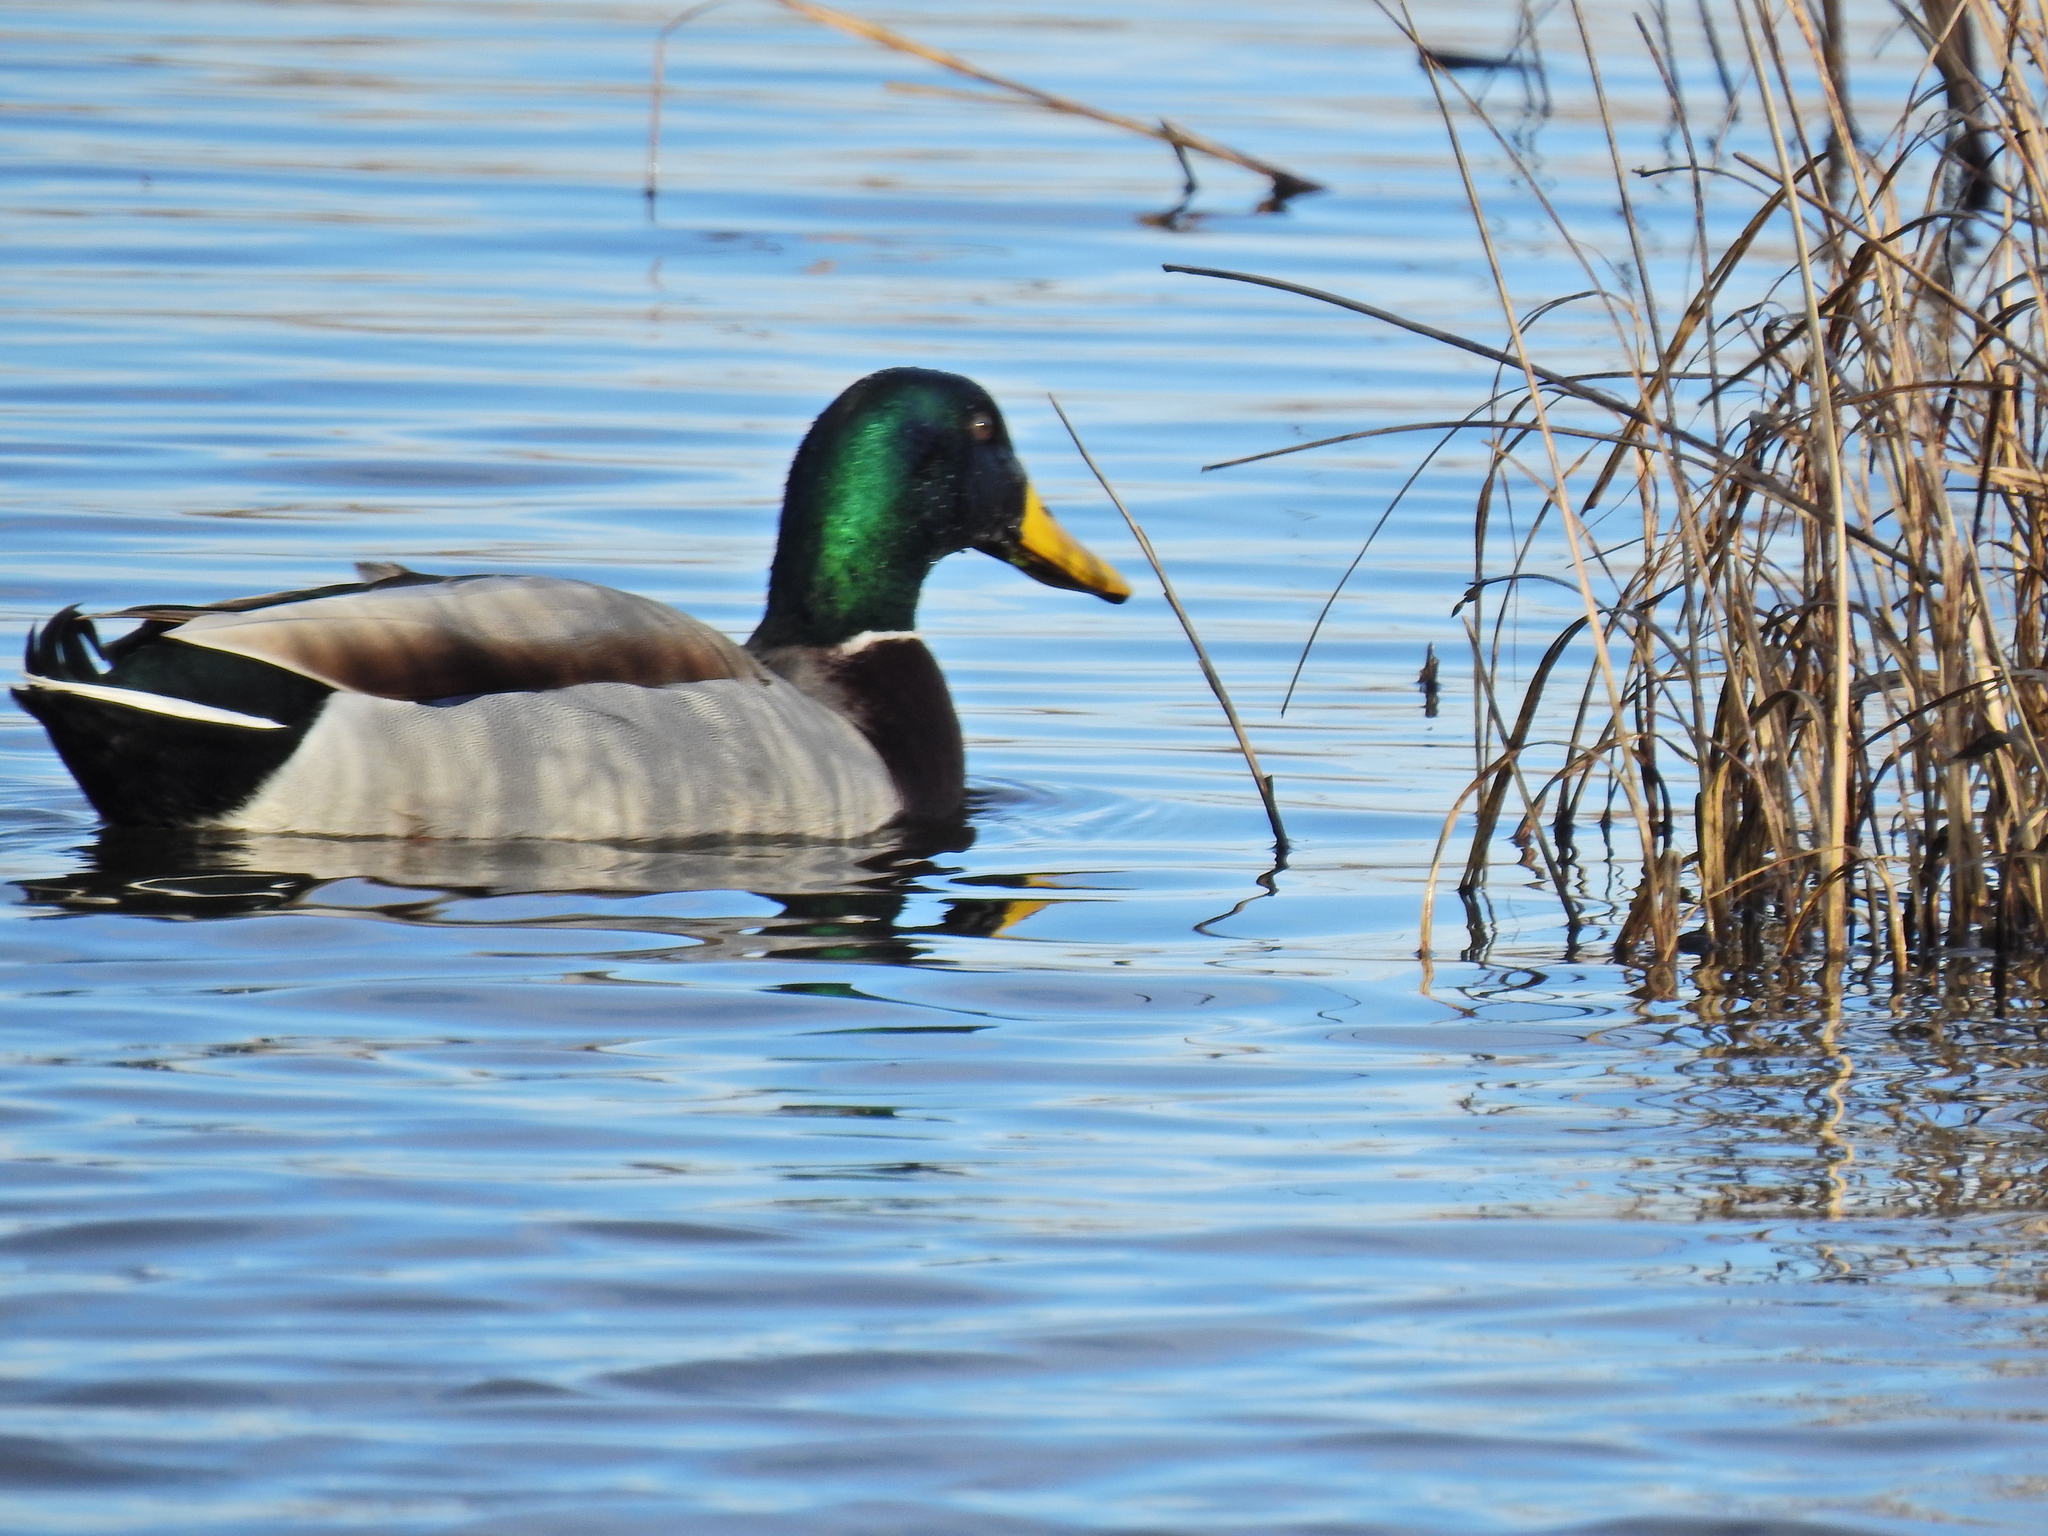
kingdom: Animalia
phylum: Chordata
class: Aves
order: Anseriformes
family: Anatidae
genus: Anas
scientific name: Anas platyrhynchos
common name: Mallard
